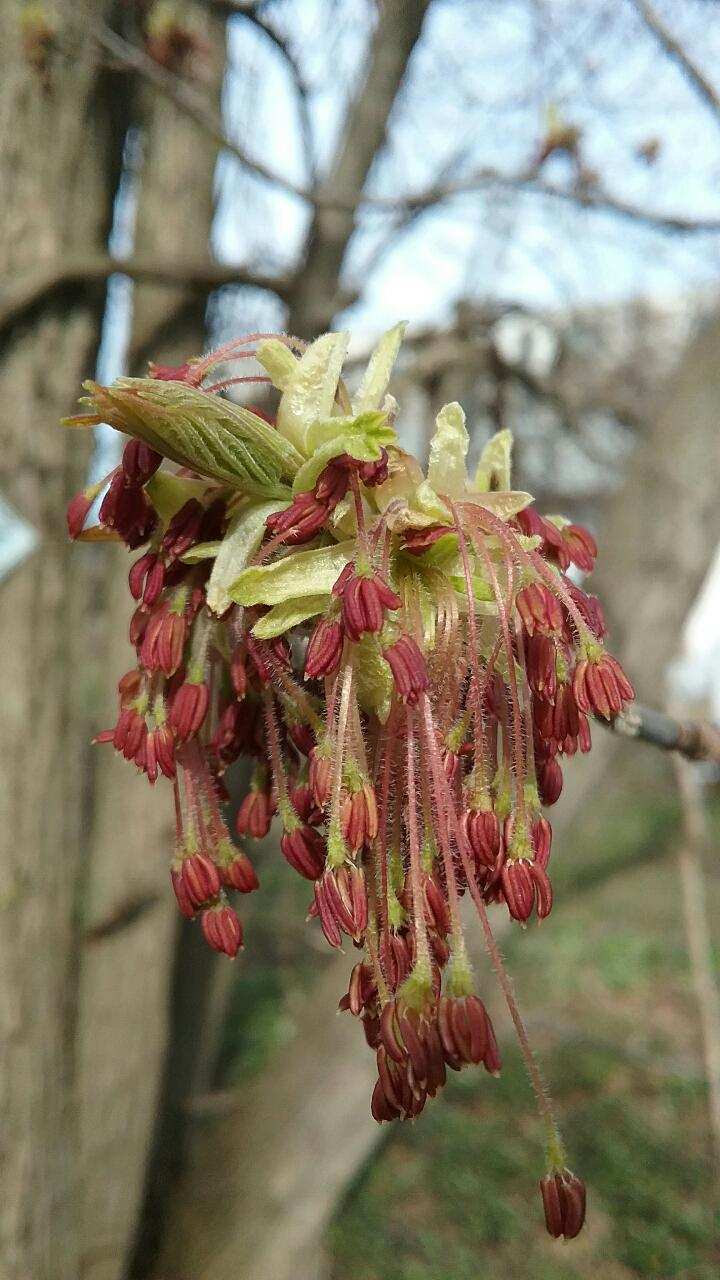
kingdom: Plantae
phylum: Tracheophyta
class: Magnoliopsida
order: Sapindales
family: Sapindaceae
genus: Acer
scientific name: Acer negundo
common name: Ashleaf maple
